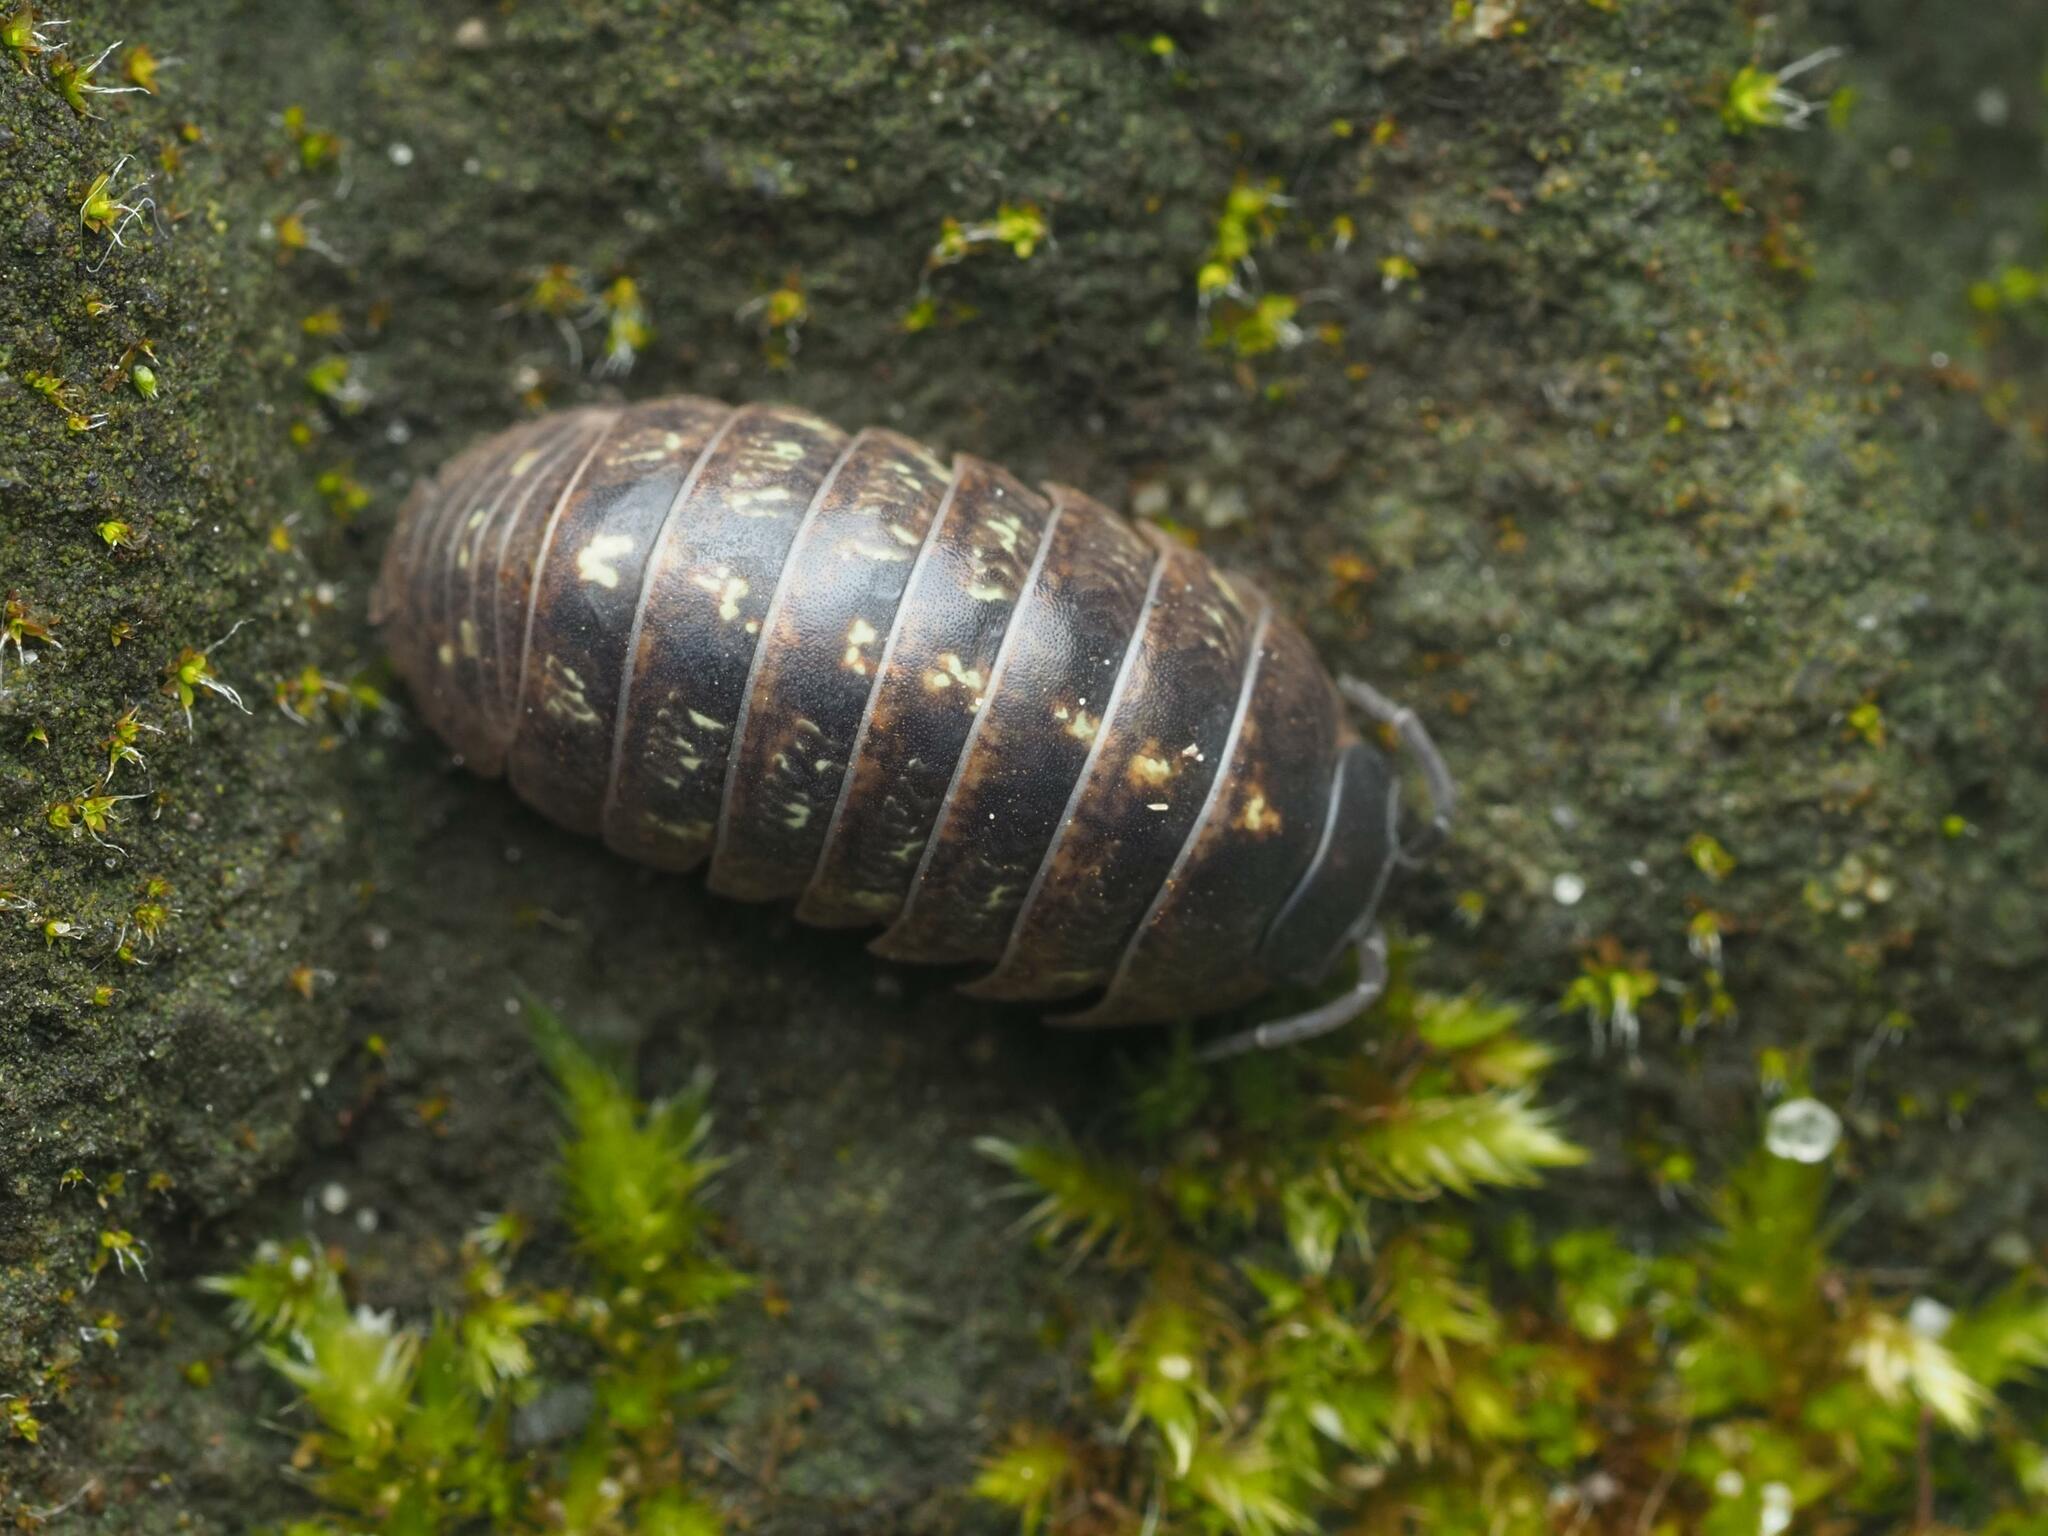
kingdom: Animalia
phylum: Arthropoda
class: Malacostraca
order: Isopoda
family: Armadillidiidae
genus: Armadillidium
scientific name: Armadillidium vulgare
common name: Common pill woodlouse
